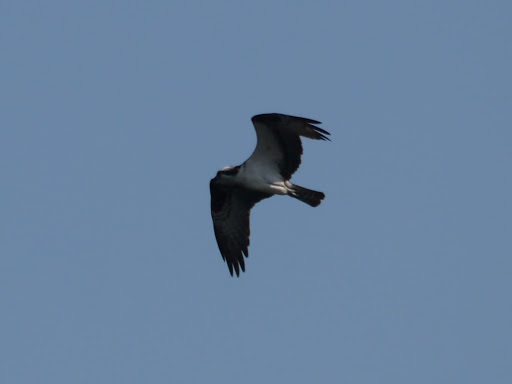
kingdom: Animalia
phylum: Chordata
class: Aves
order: Accipitriformes
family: Pandionidae
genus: Pandion
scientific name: Pandion haliaetus
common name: Osprey
